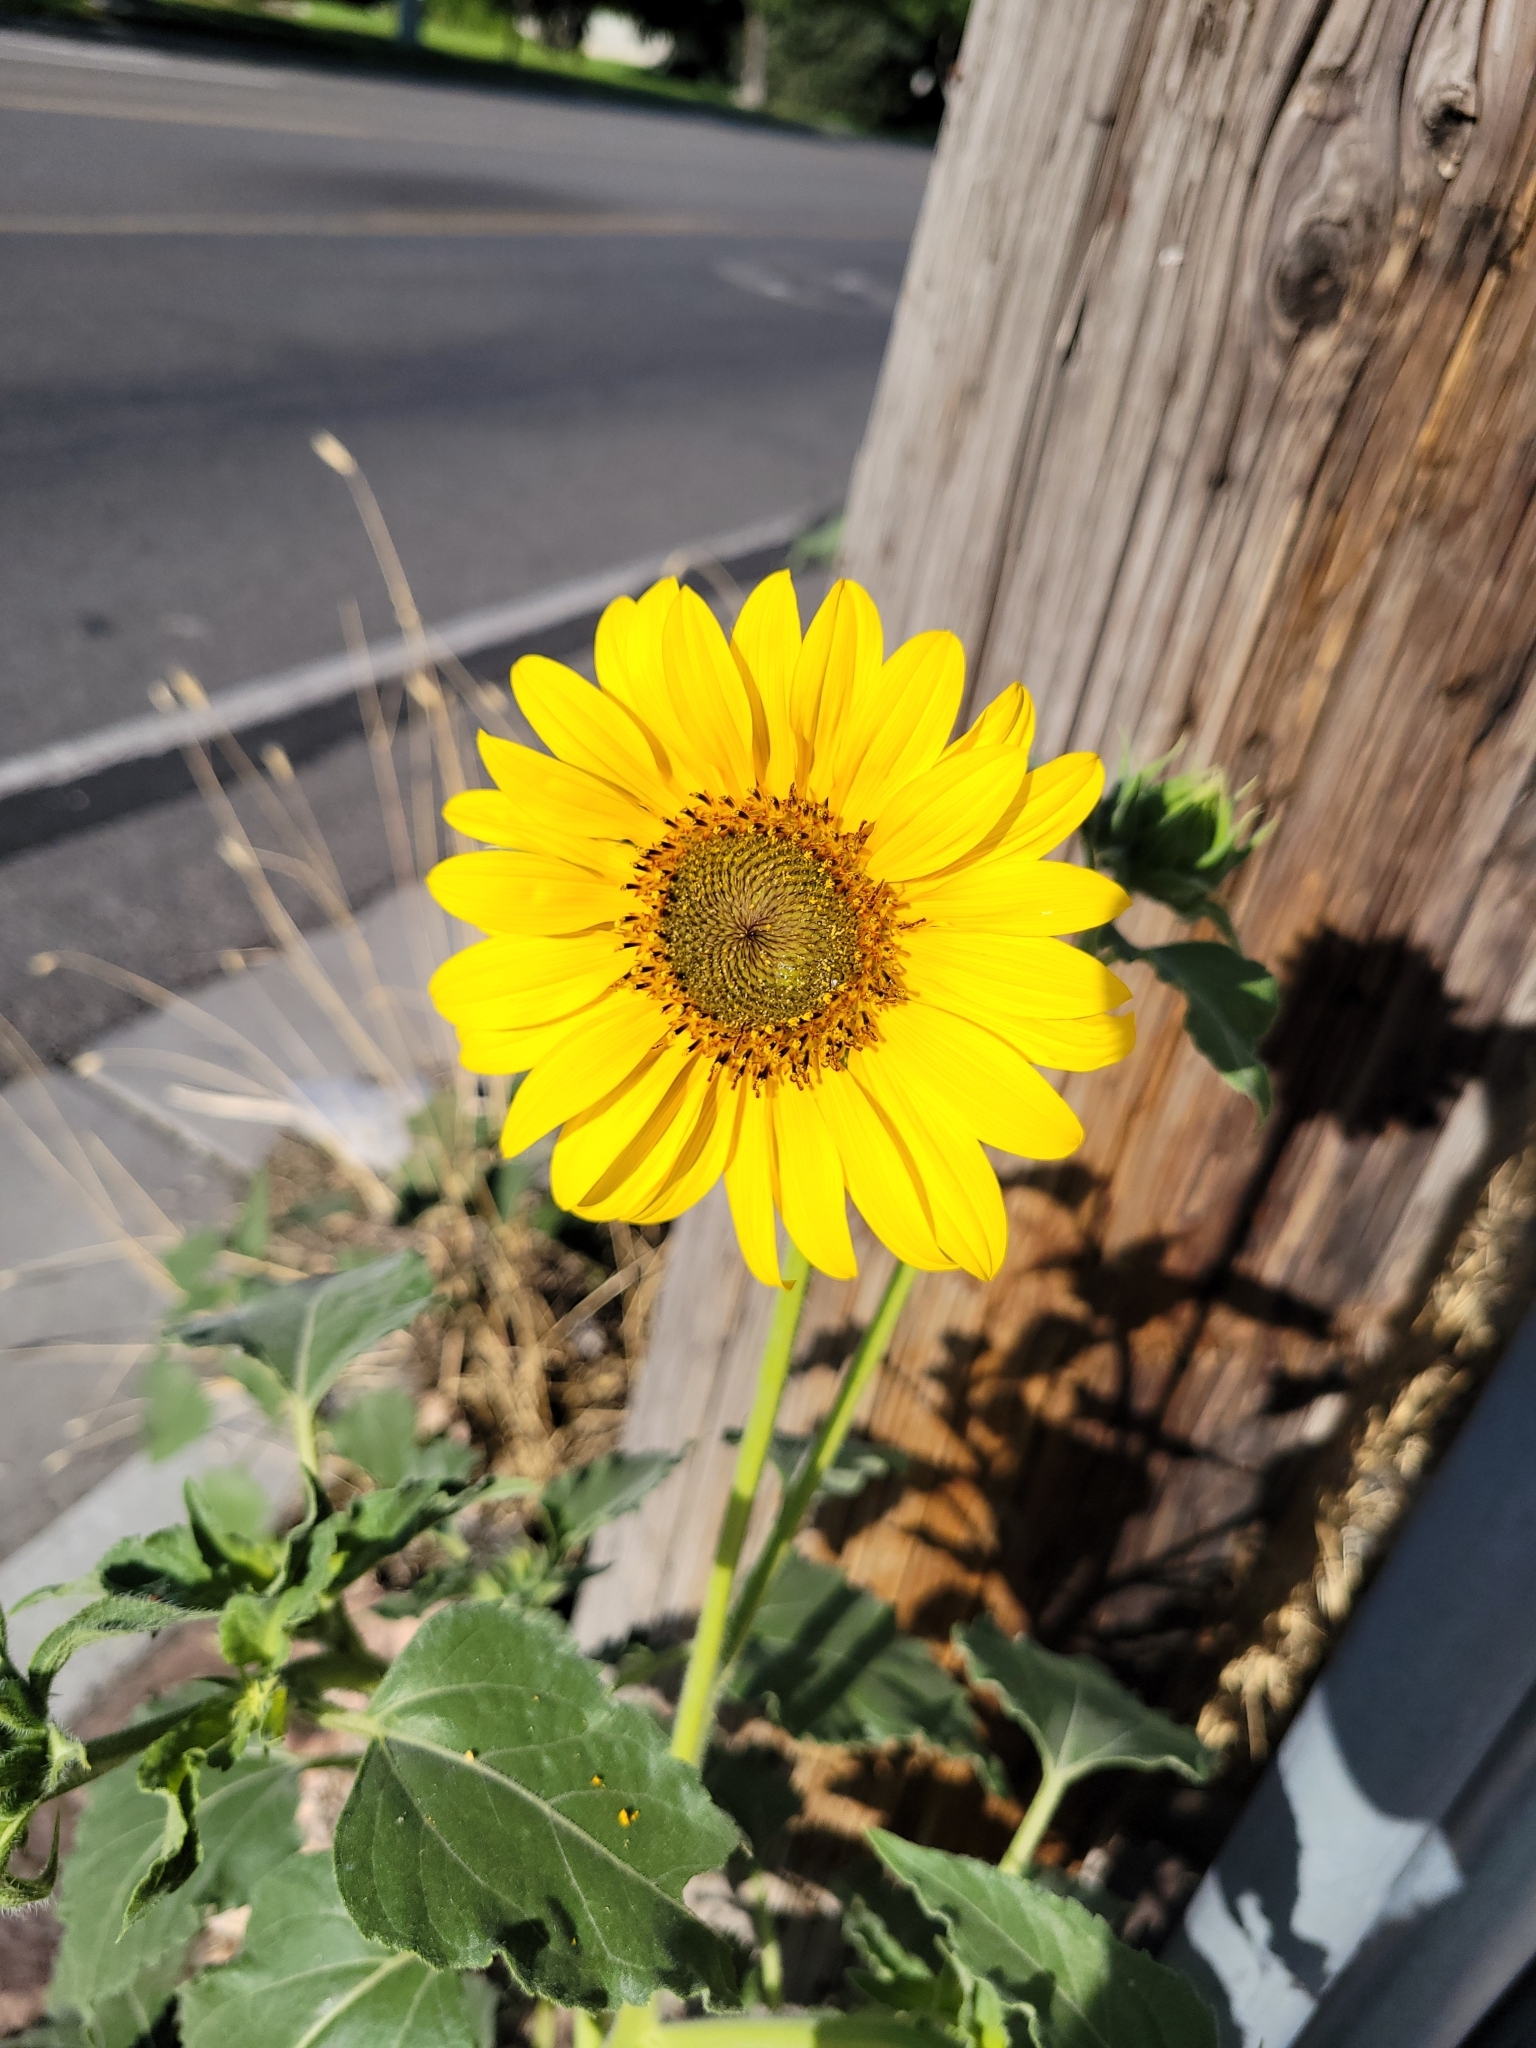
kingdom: Plantae
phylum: Tracheophyta
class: Magnoliopsida
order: Asterales
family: Asteraceae
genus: Helianthus
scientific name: Helianthus annuus
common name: Sunflower
